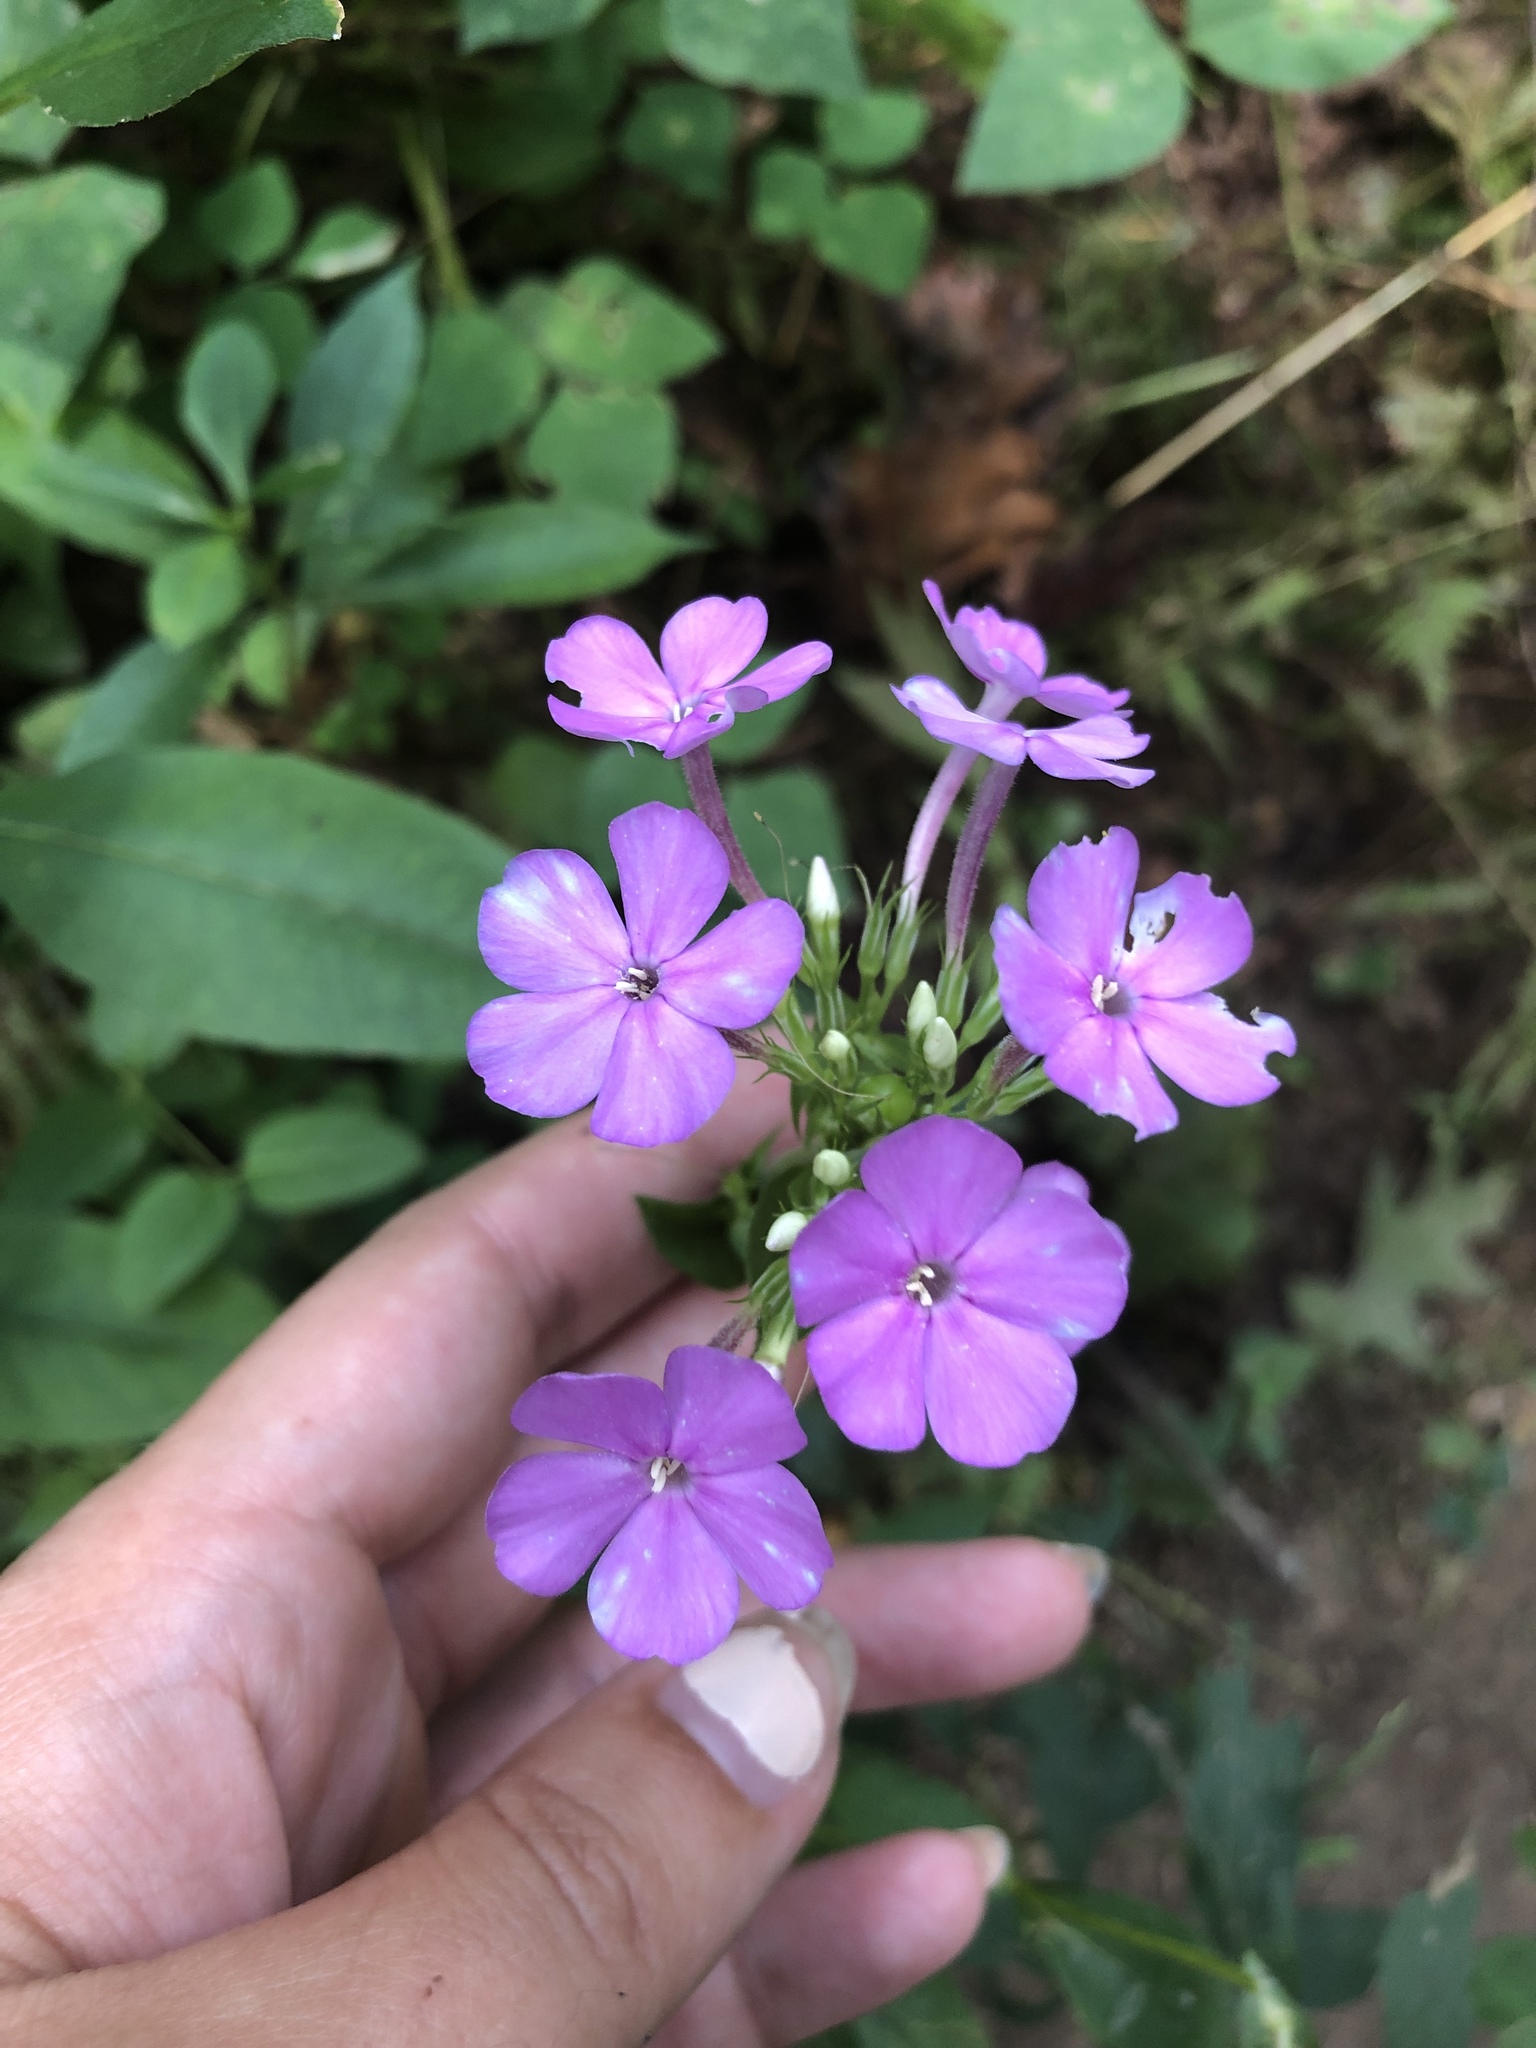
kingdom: Plantae
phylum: Tracheophyta
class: Magnoliopsida
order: Ericales
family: Polemoniaceae
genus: Phlox
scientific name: Phlox paniculata
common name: Fall phlox
